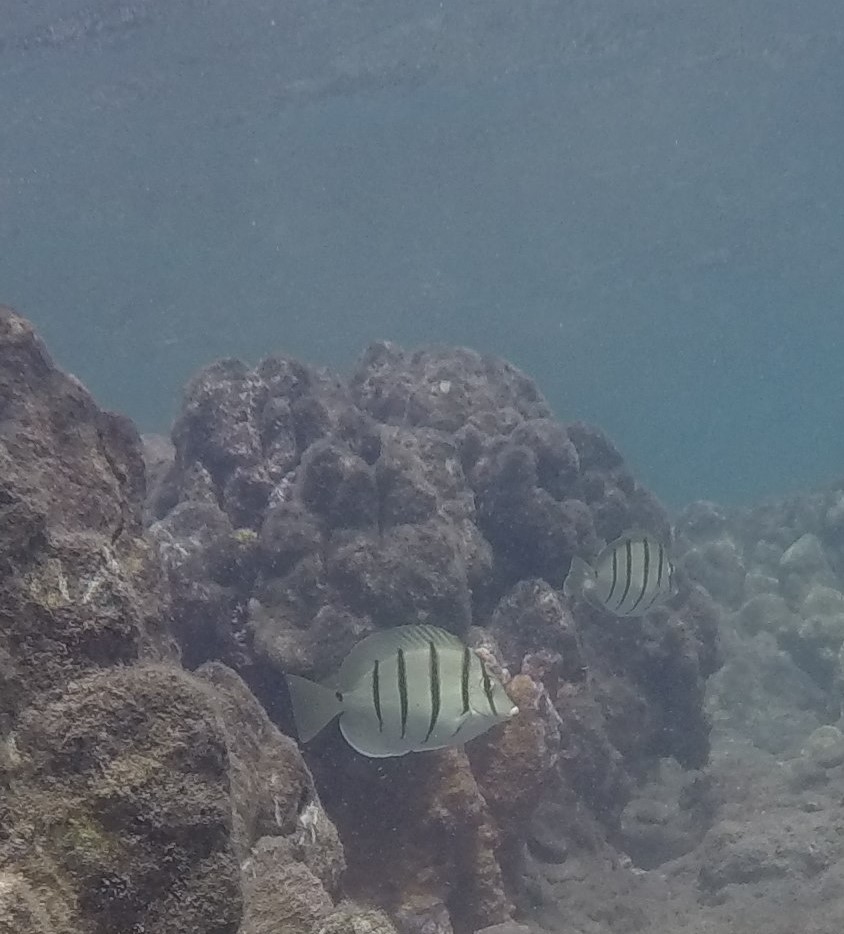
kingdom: Animalia
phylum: Chordata
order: Perciformes
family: Acanthuridae
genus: Acanthurus
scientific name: Acanthurus triostegus
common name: Convict surgeonfish
